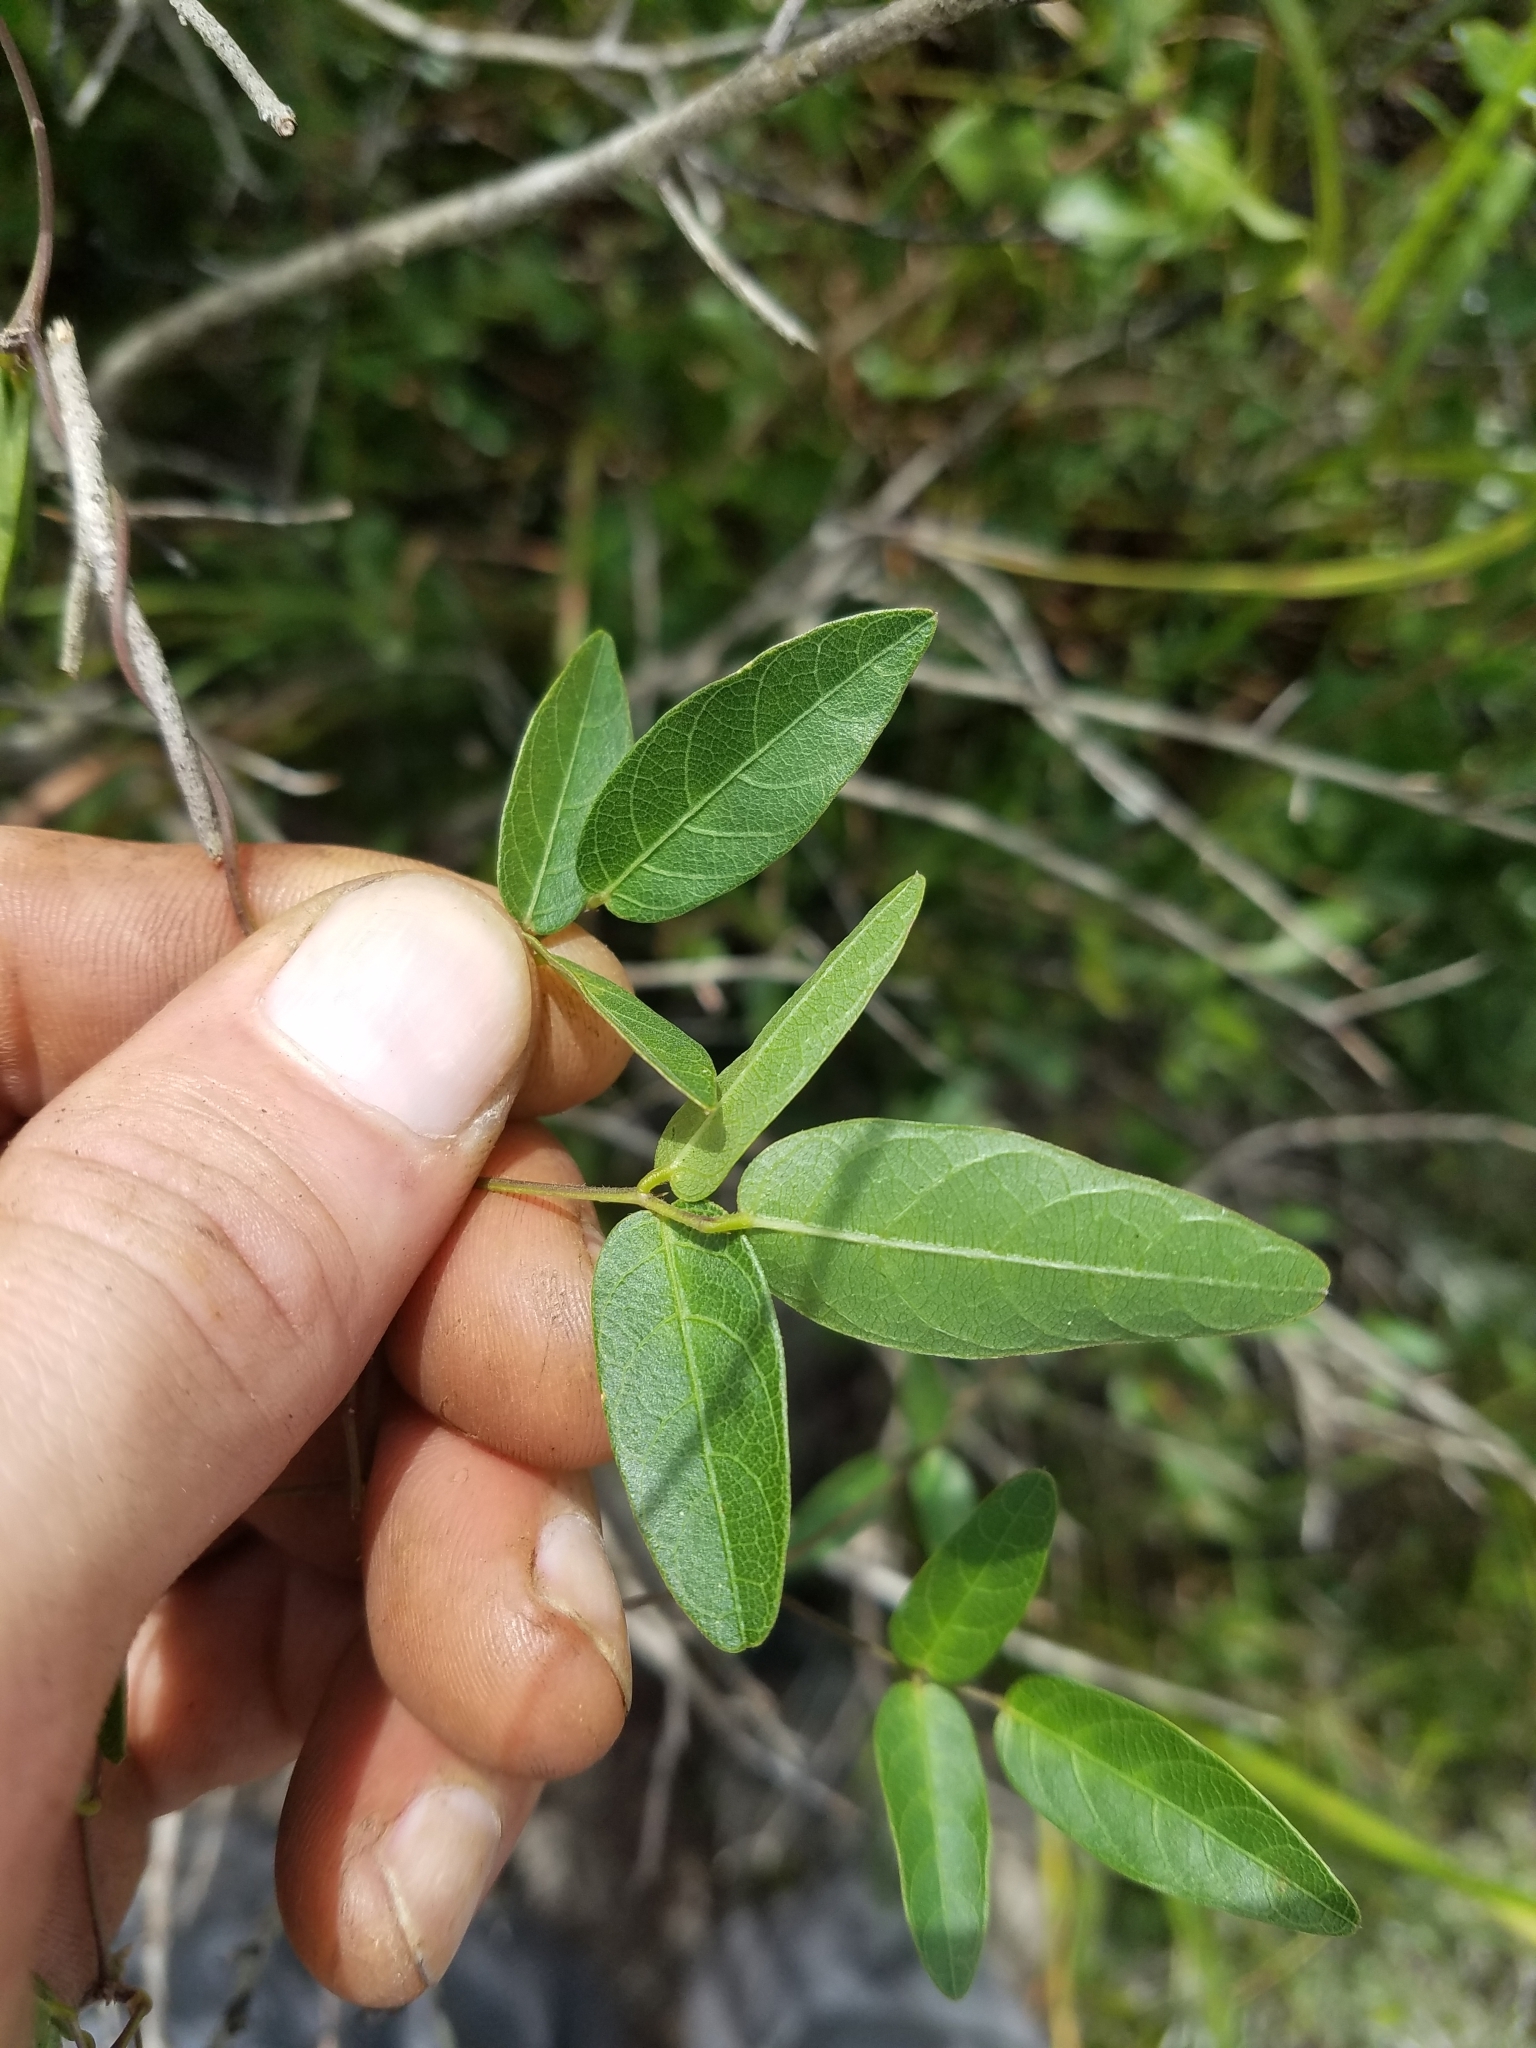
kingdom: Plantae
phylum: Tracheophyta
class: Magnoliopsida
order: Fabales
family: Fabaceae
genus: Centrosema
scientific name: Centrosema arenicola
